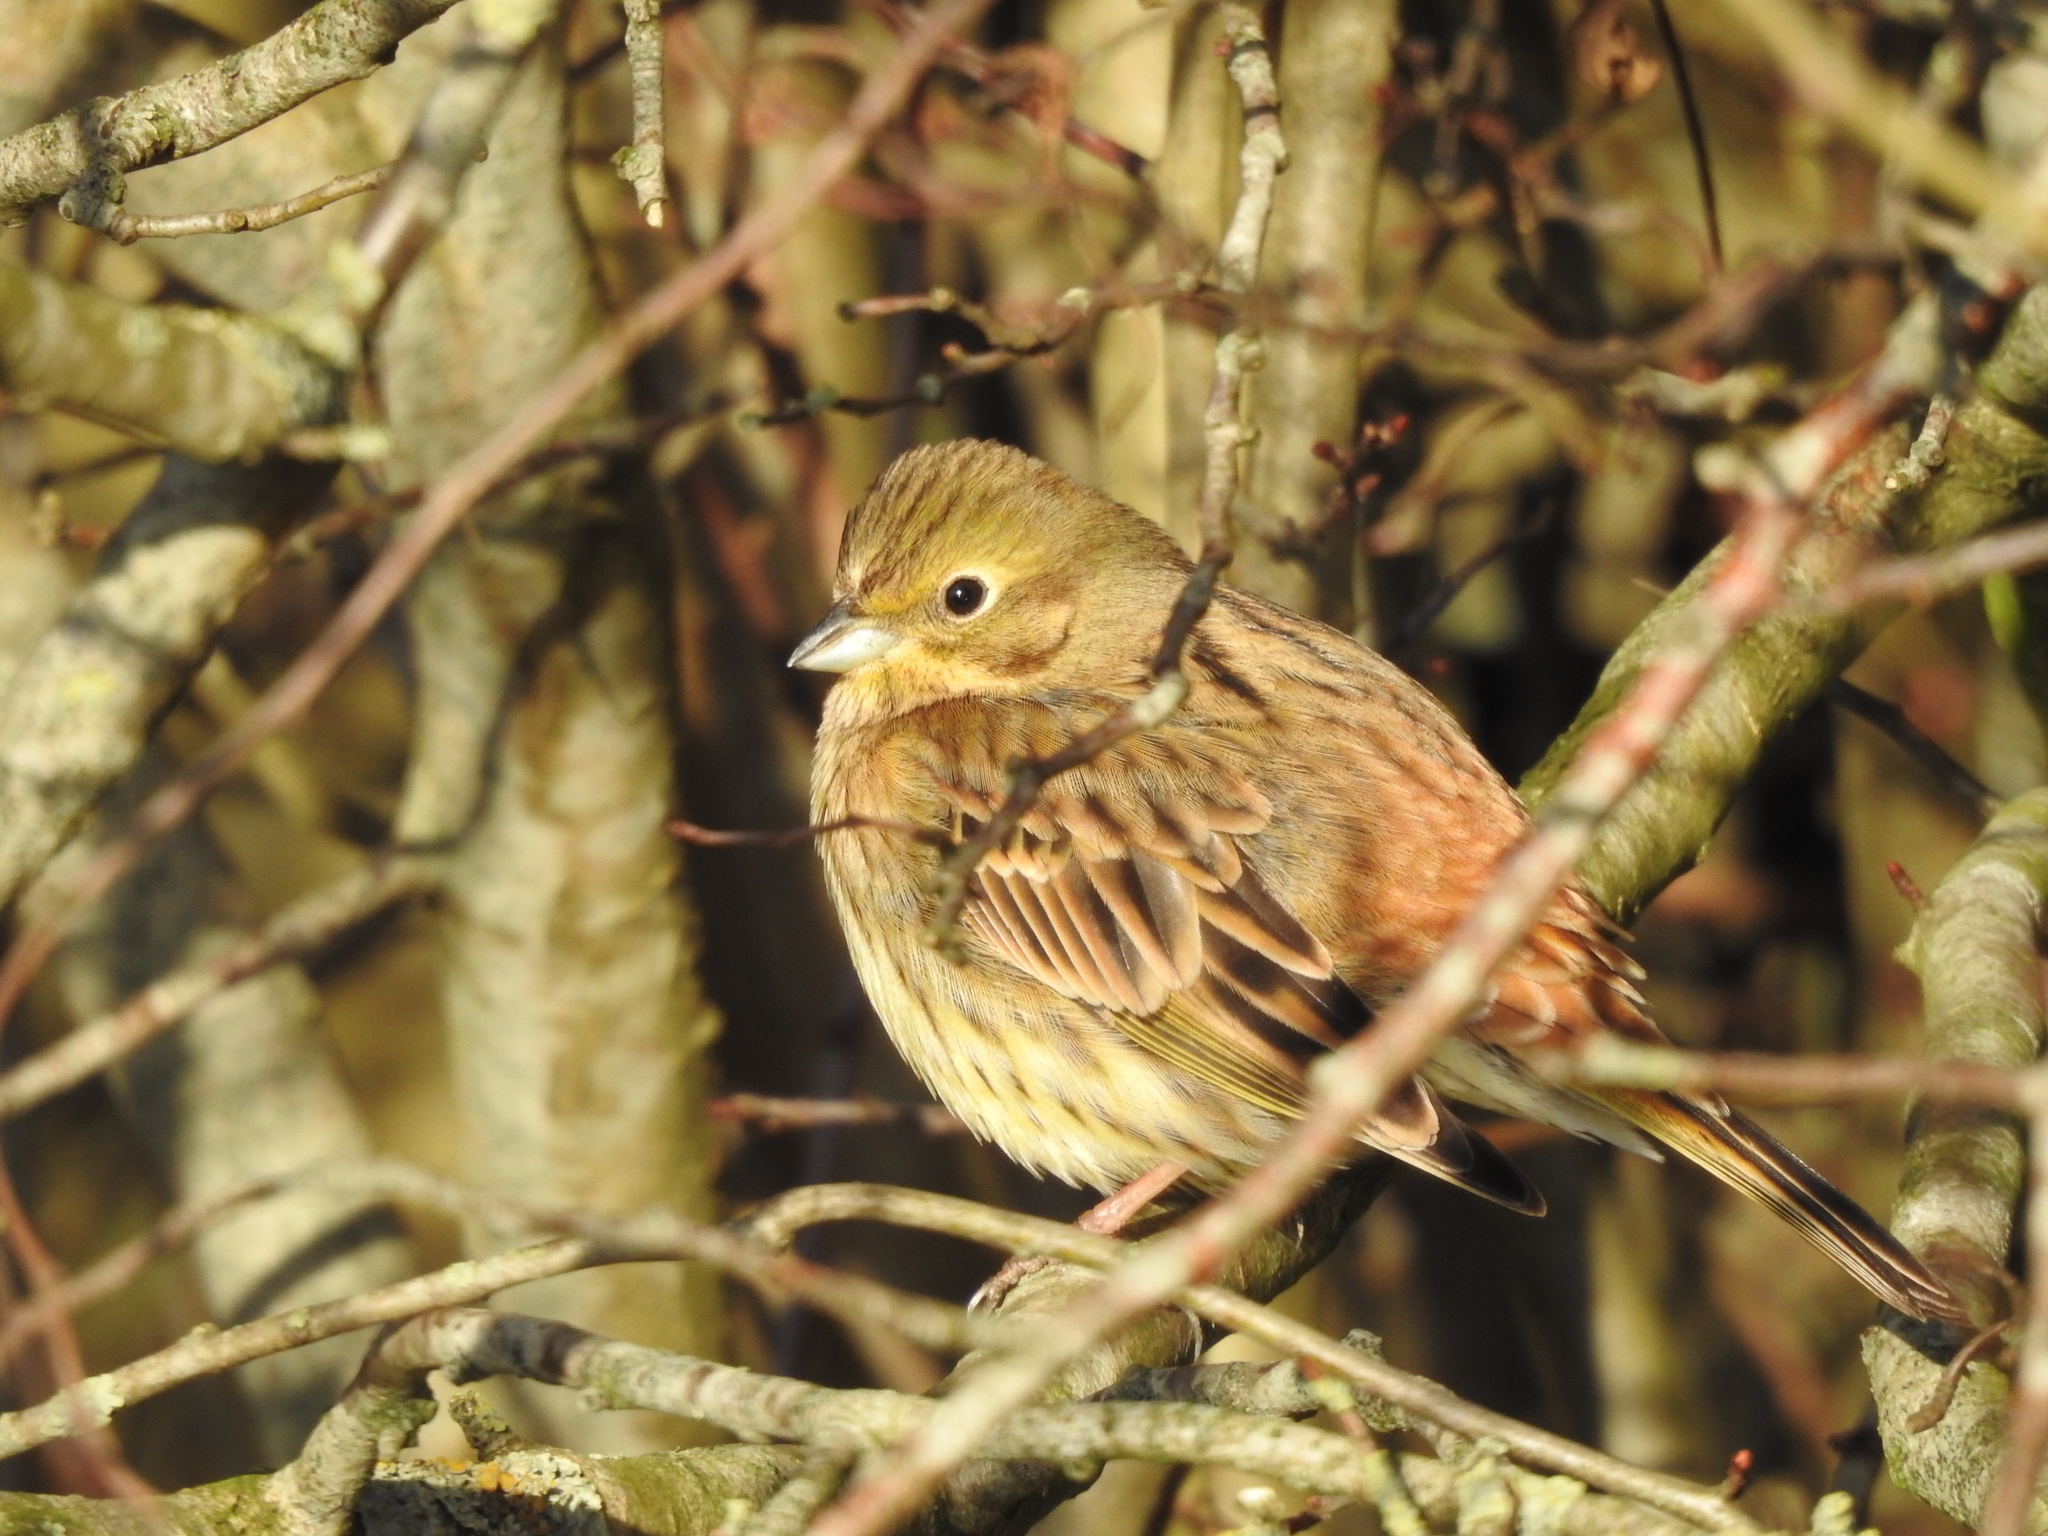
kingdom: Animalia
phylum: Chordata
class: Aves
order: Passeriformes
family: Emberizidae
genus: Emberiza
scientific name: Emberiza citrinella
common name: Yellowhammer
